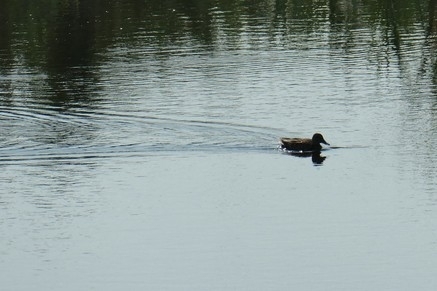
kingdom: Animalia
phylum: Chordata
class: Aves
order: Anseriformes
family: Anatidae
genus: Anas
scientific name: Anas platyrhynchos
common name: Mallard
